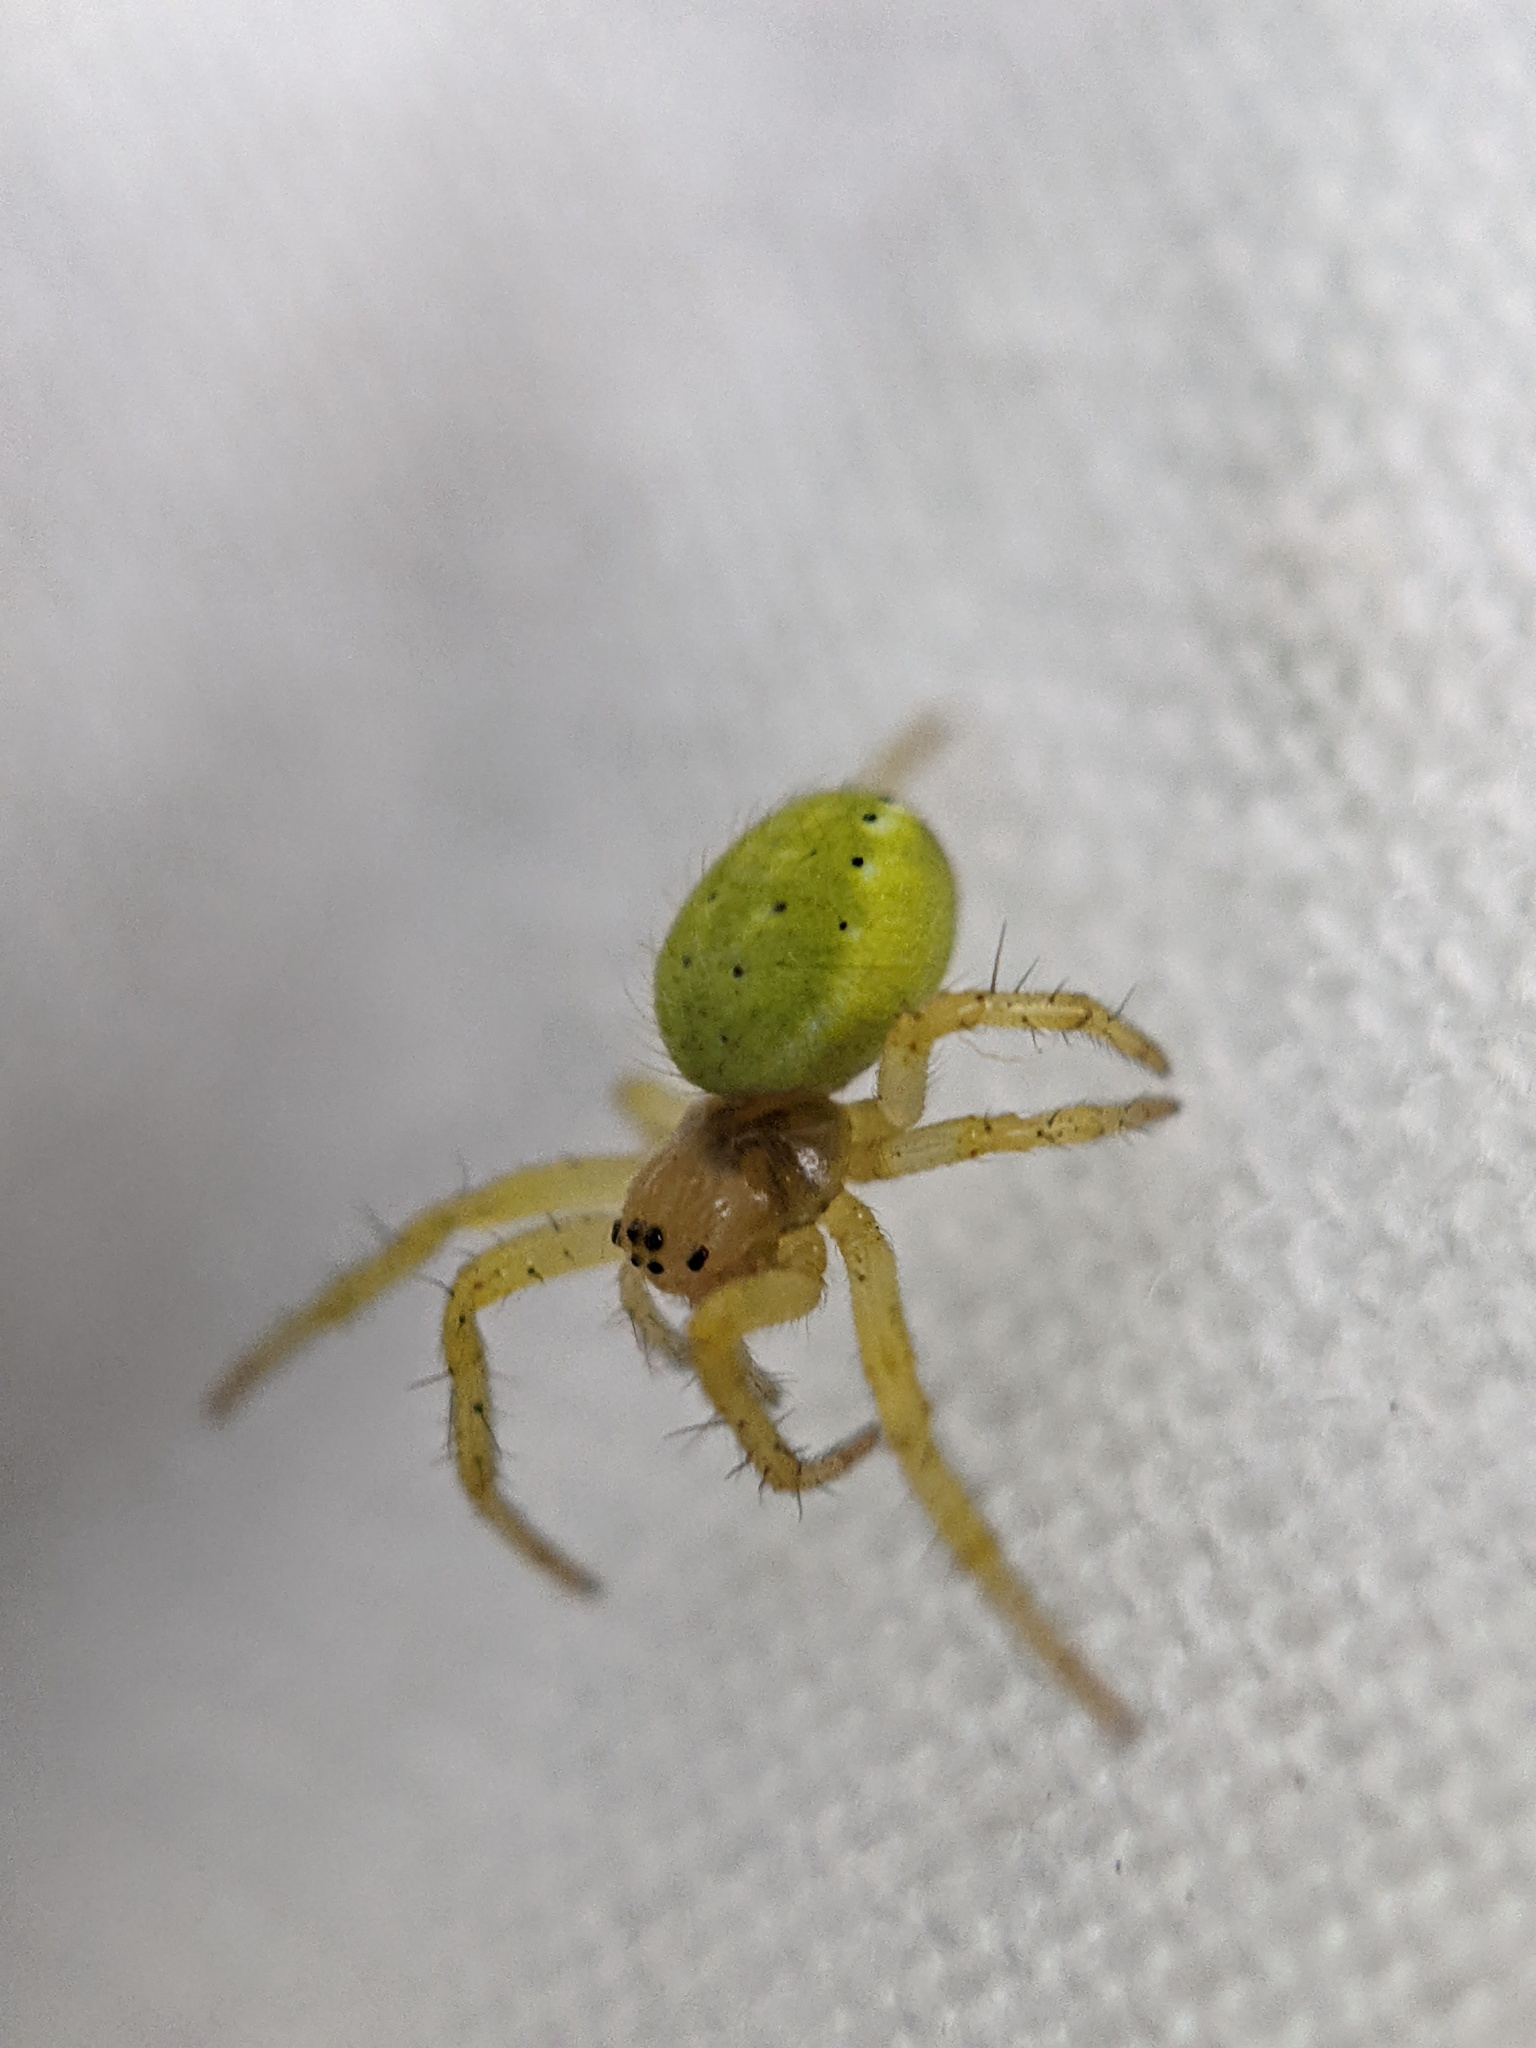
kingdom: Animalia
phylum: Arthropoda
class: Arachnida
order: Araneae
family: Araneidae
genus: Araniella
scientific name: Araniella
